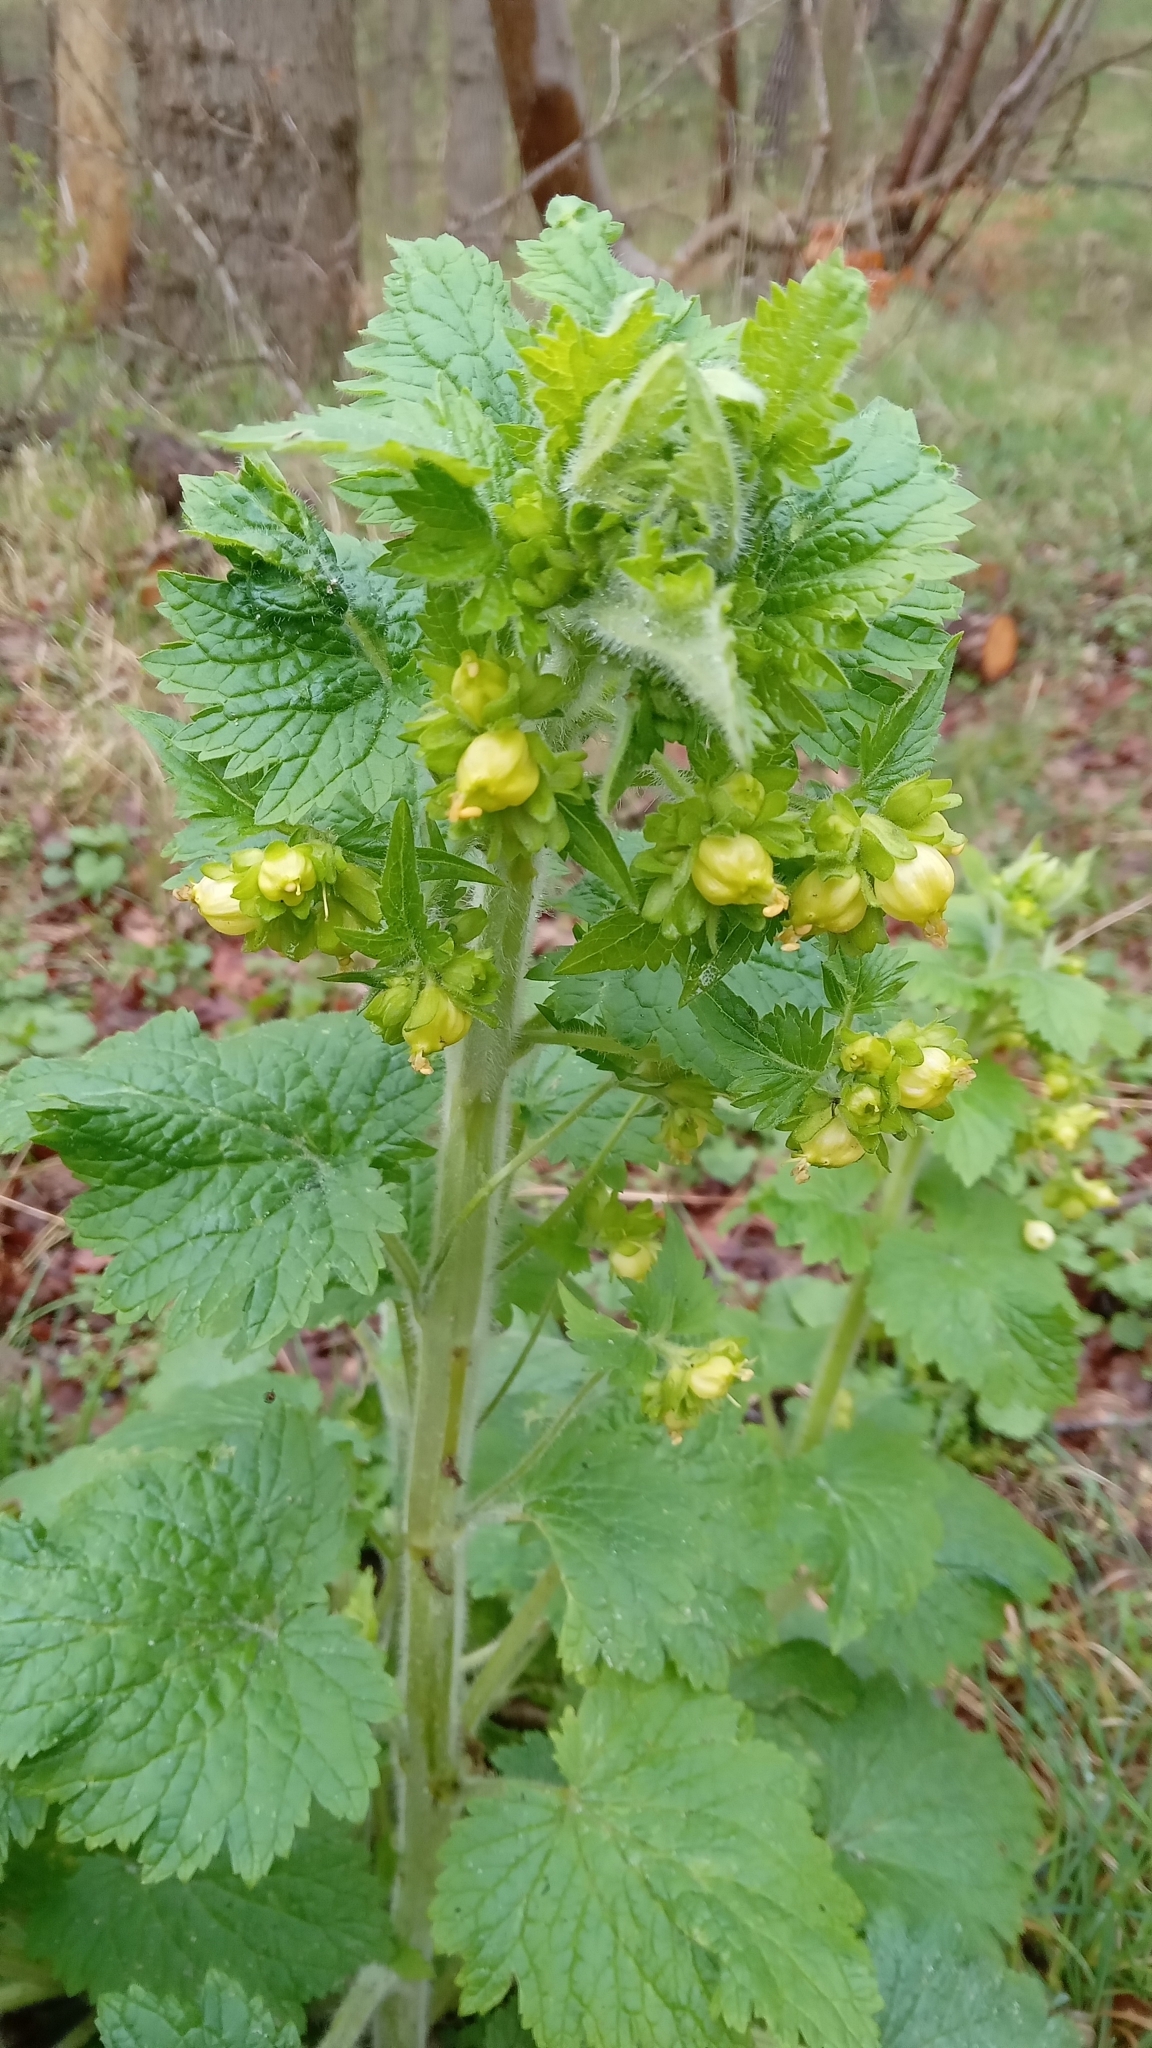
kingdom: Plantae
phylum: Tracheophyta
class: Magnoliopsida
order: Lamiales
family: Scrophulariaceae
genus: Scrophularia
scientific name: Scrophularia vernalis
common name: Yellow figwort
